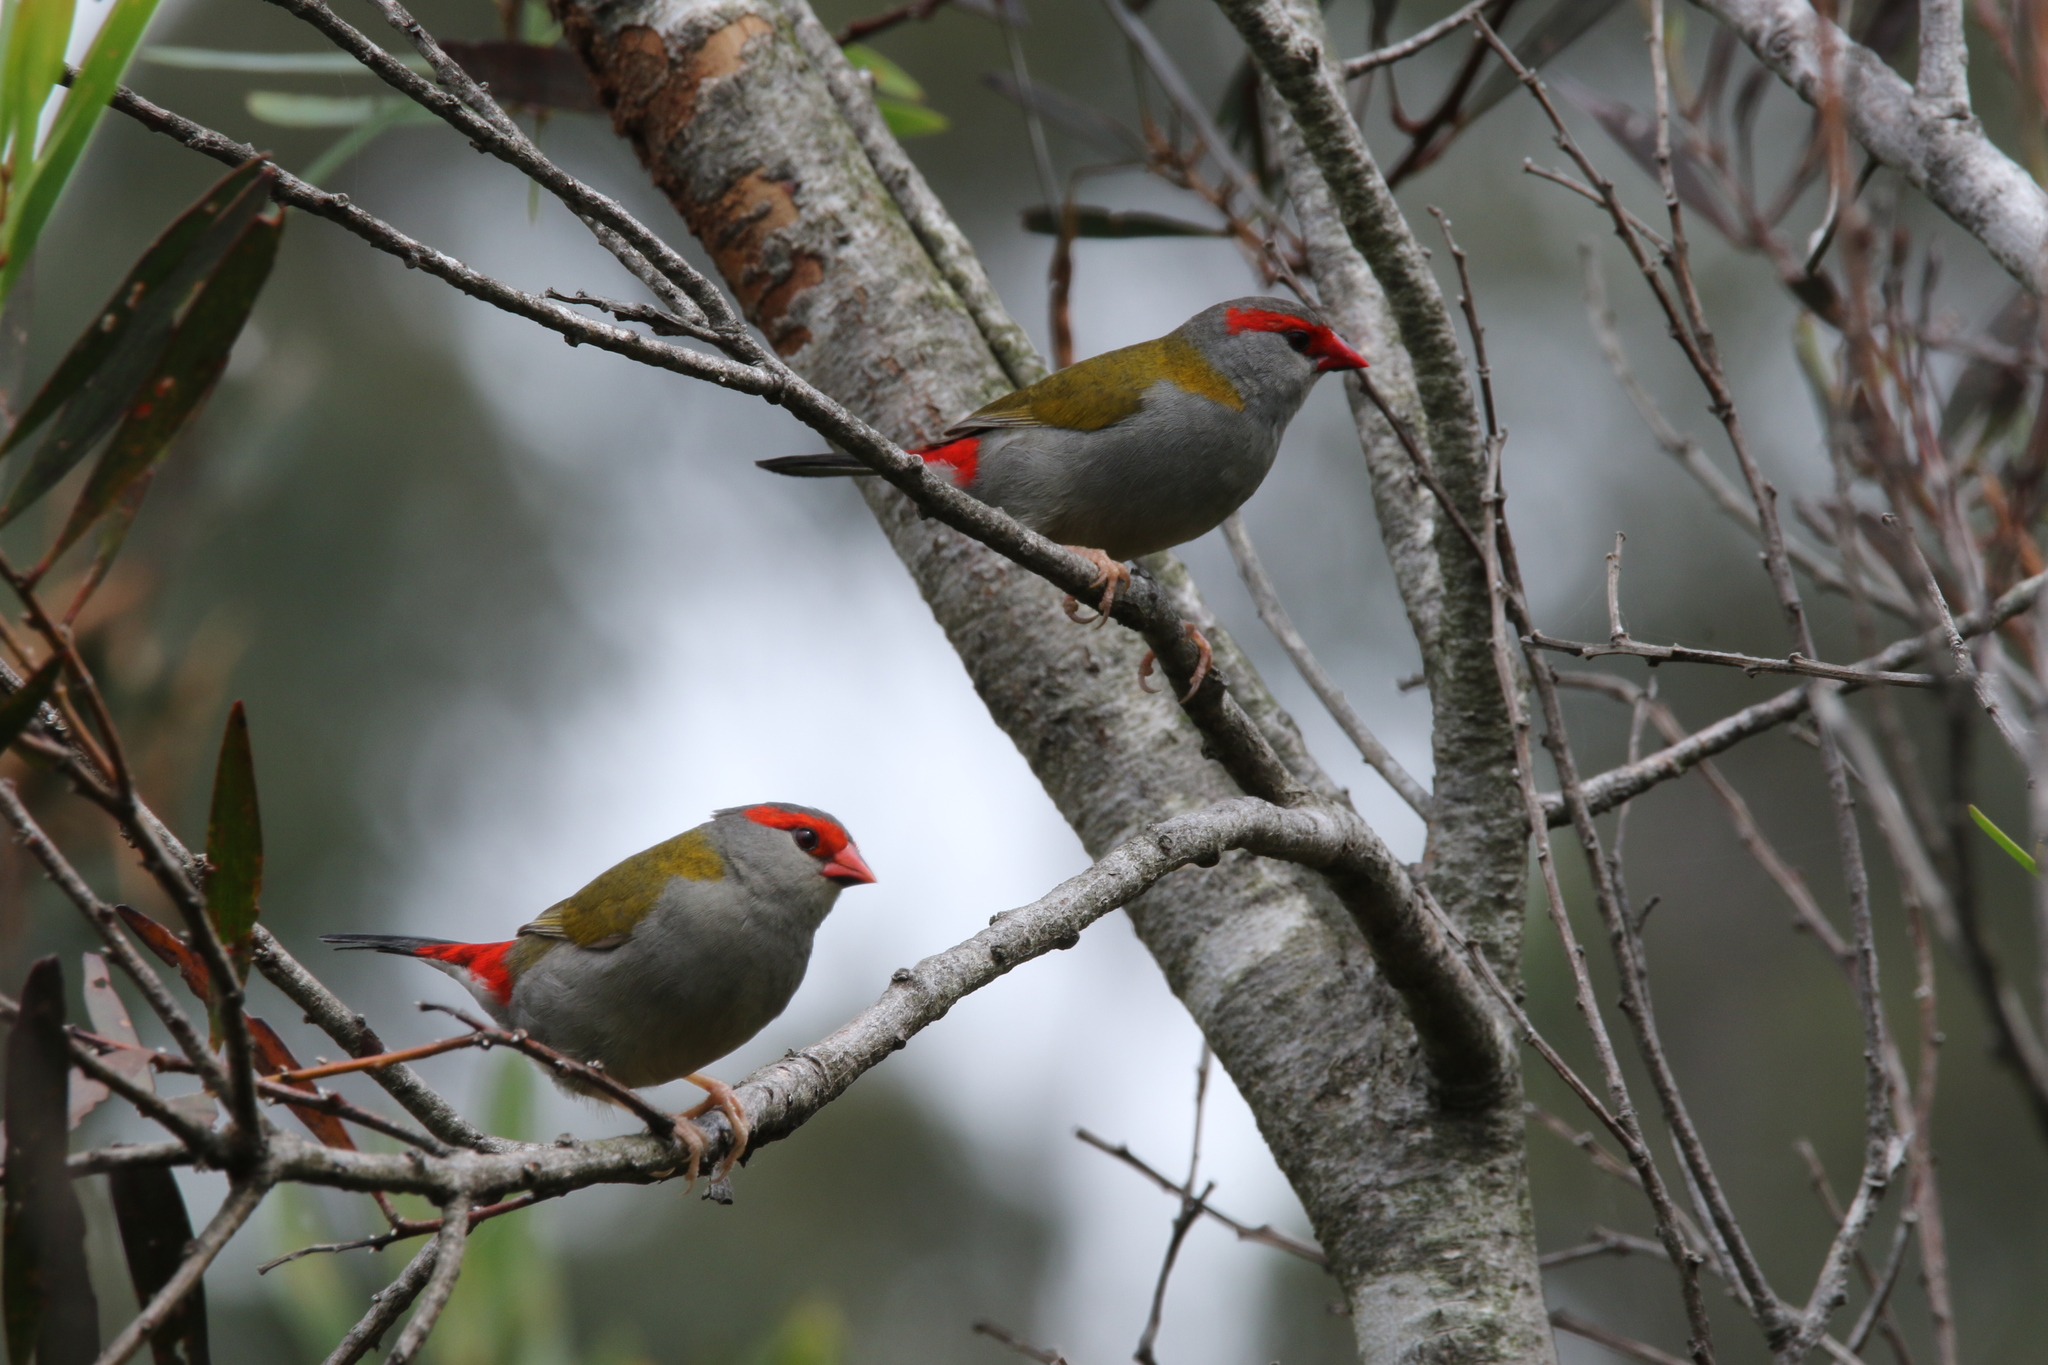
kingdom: Animalia
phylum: Chordata
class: Aves
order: Passeriformes
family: Estrildidae
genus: Neochmia
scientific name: Neochmia temporalis
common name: Red-browed finch
